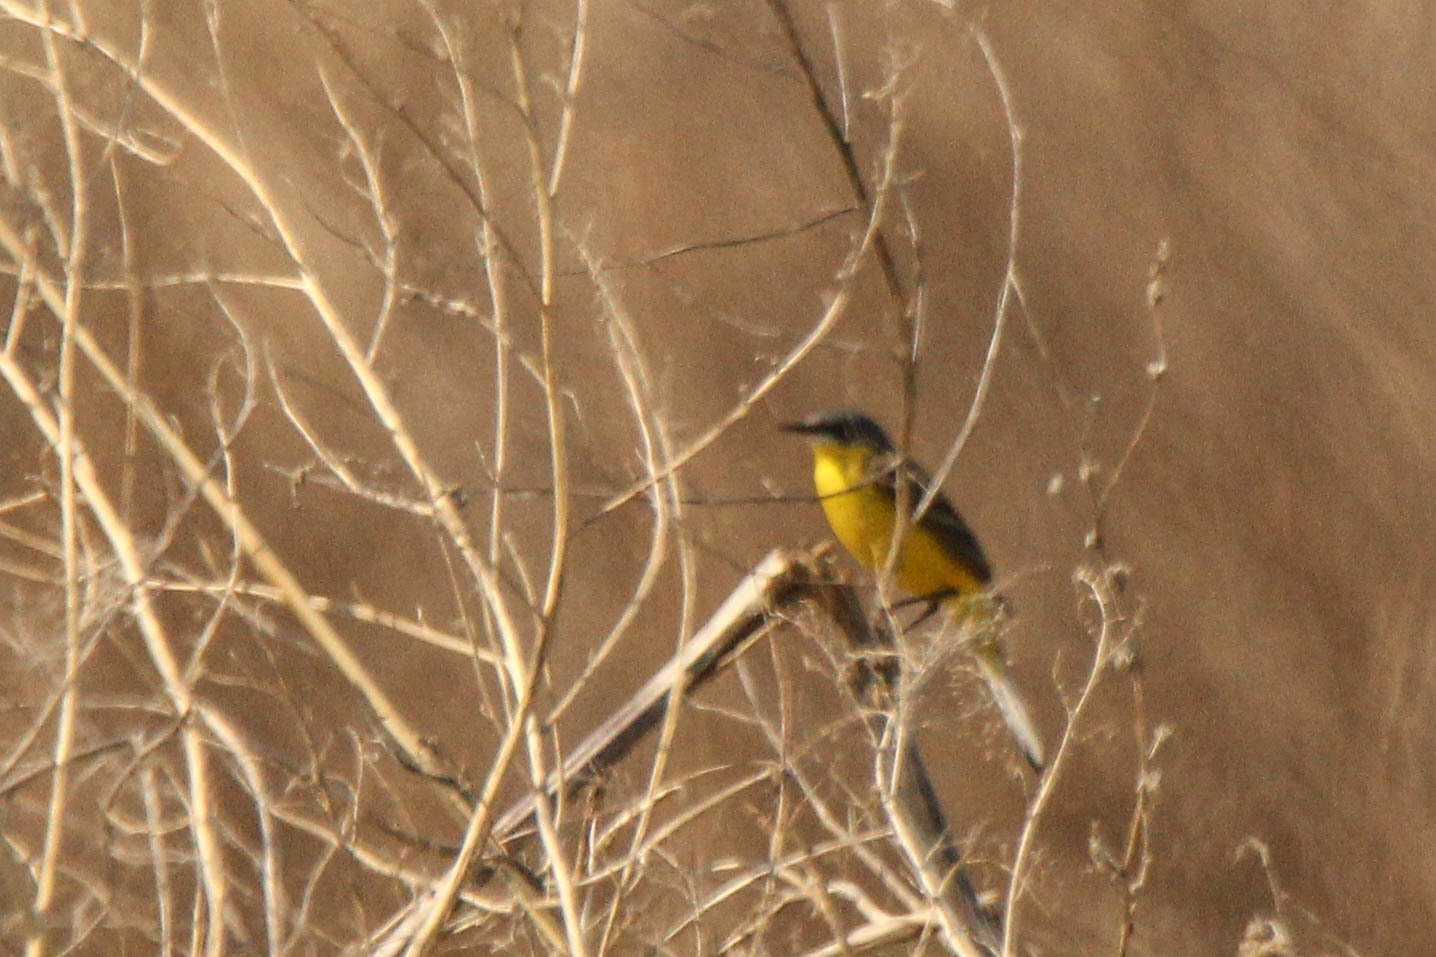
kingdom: Animalia
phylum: Chordata
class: Aves
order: Passeriformes
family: Motacillidae
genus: Motacilla
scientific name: Motacilla tschutschensis
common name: Eastern yellow wagtail
